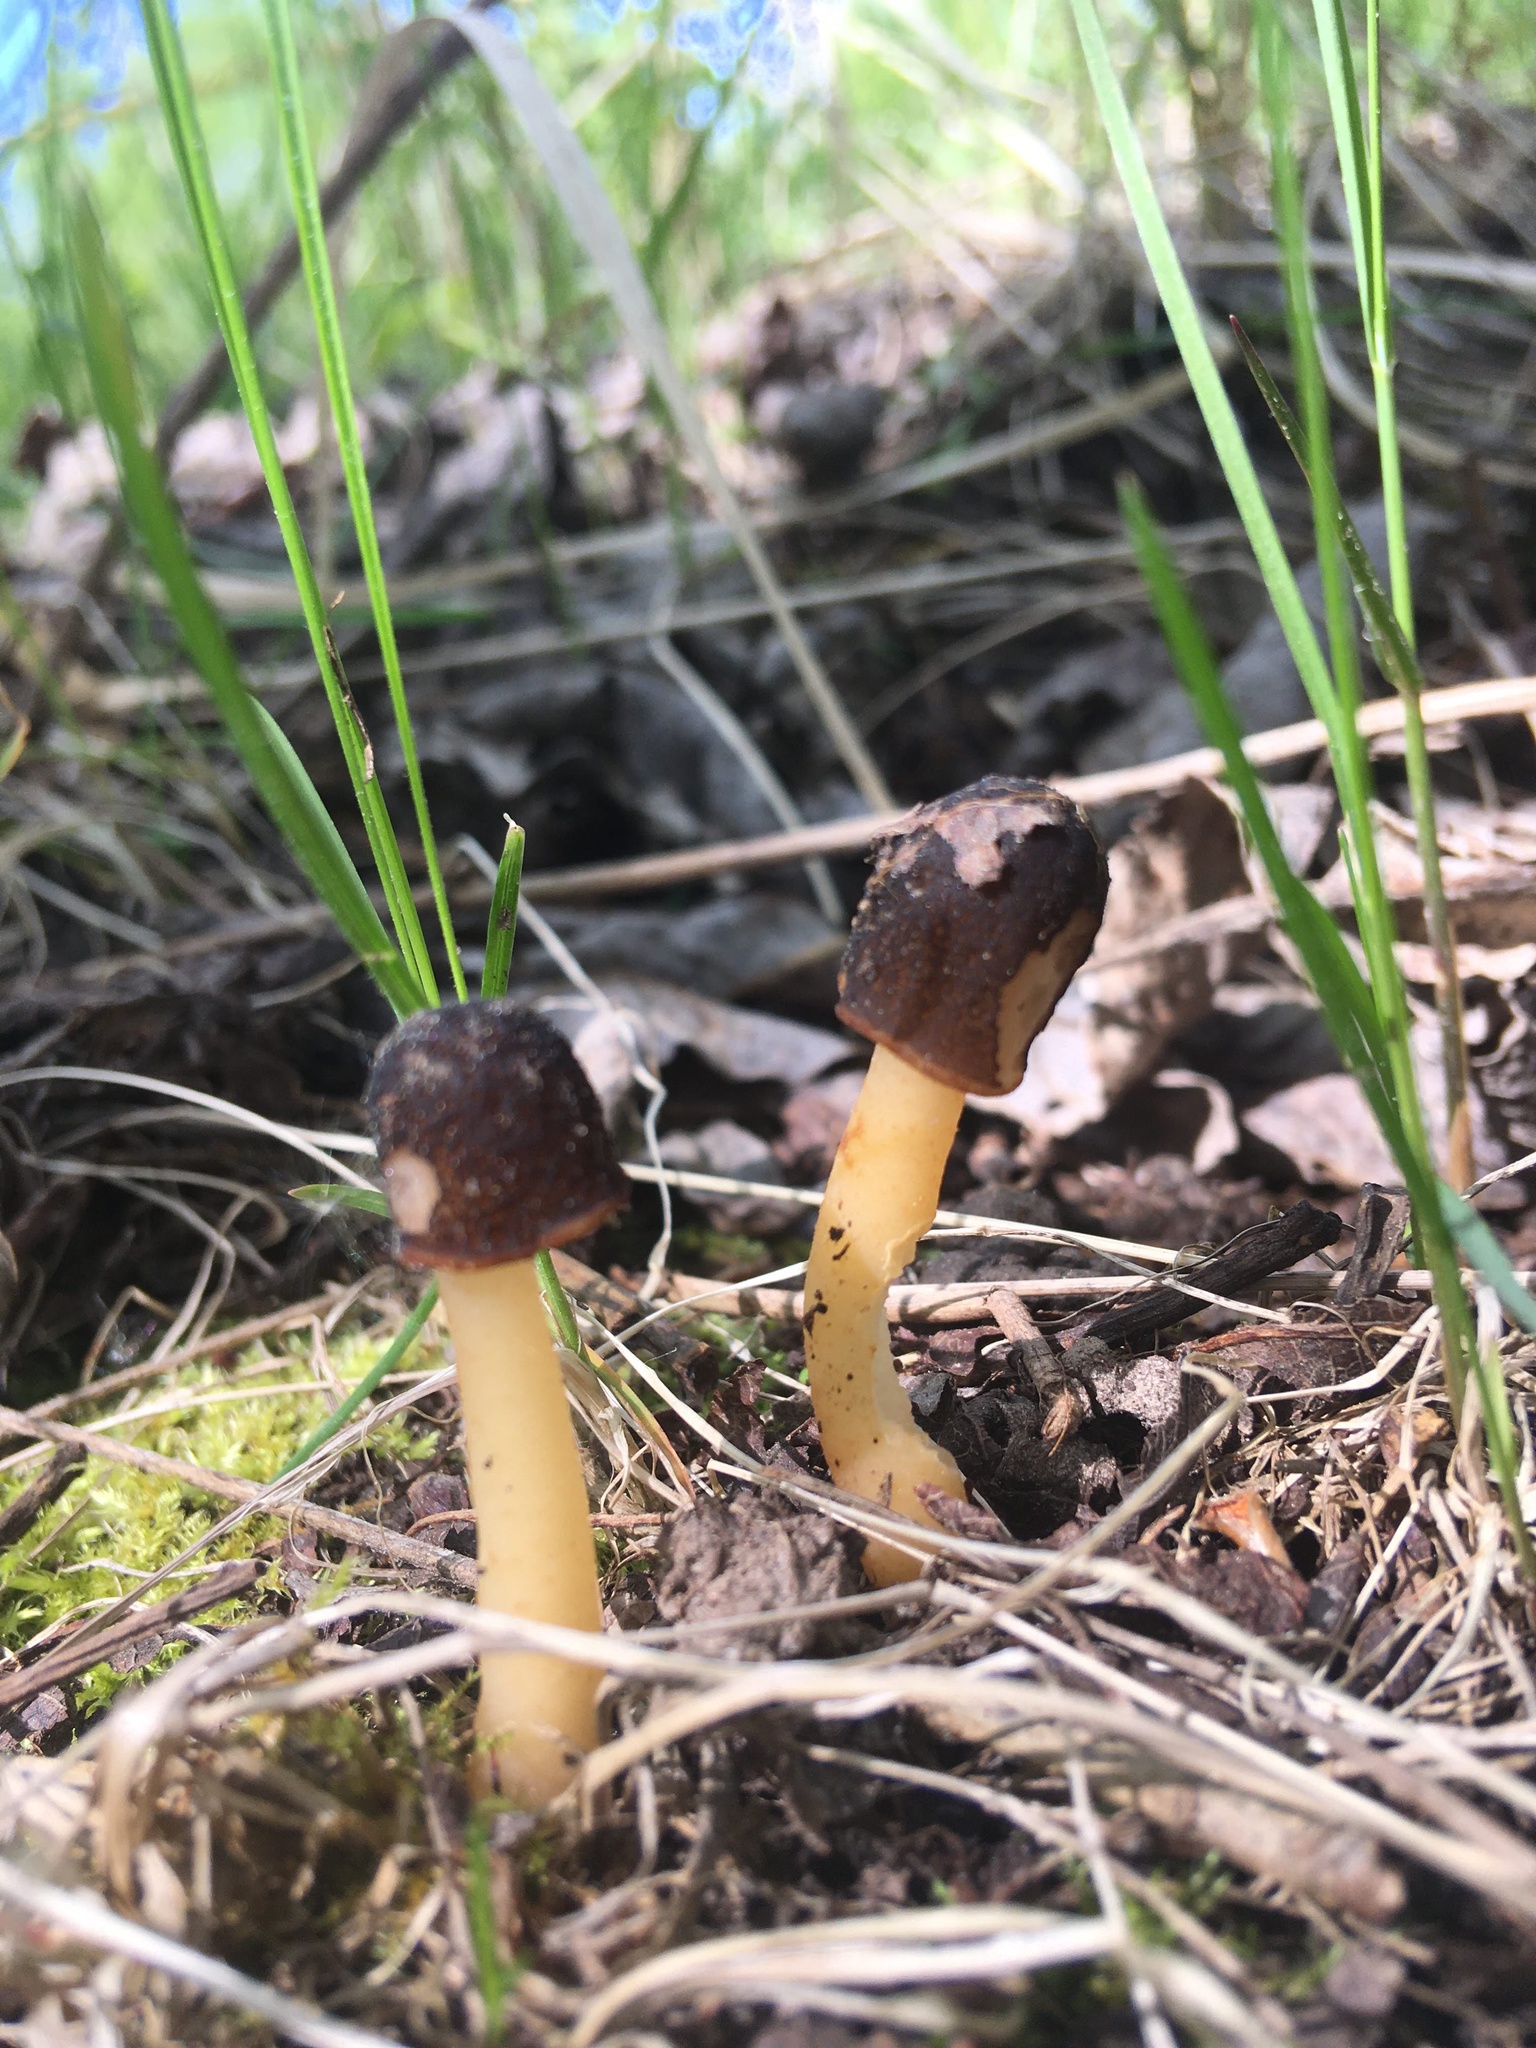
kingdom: Fungi
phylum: Ascomycota
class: Pezizomycetes
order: Pezizales
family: Morchellaceae
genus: Verpa
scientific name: Verpa conica
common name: Thimble morel
